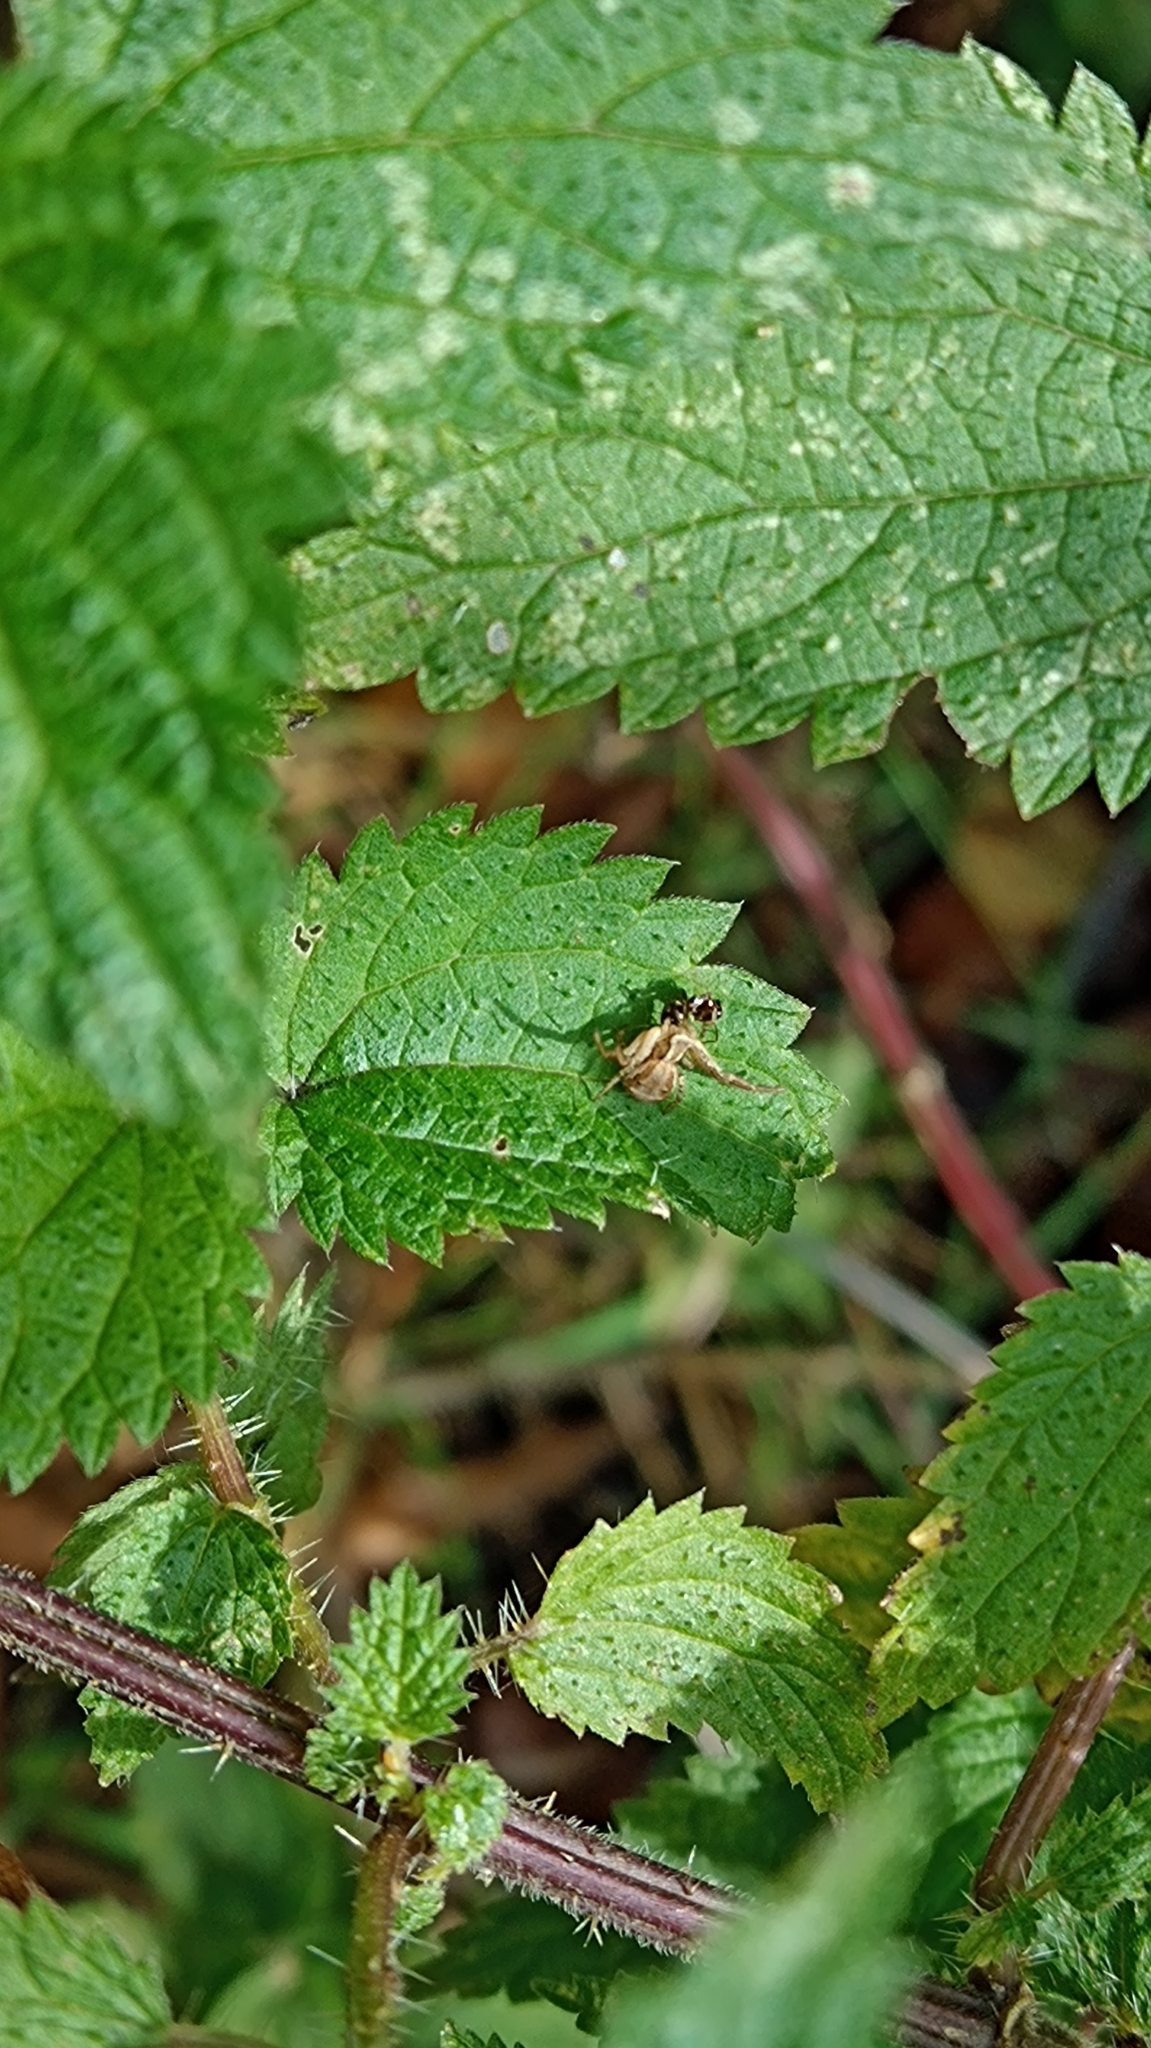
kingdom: Animalia
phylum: Arthropoda
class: Arachnida
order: Araneae
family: Thomisidae
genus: Xysticus
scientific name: Xysticus
